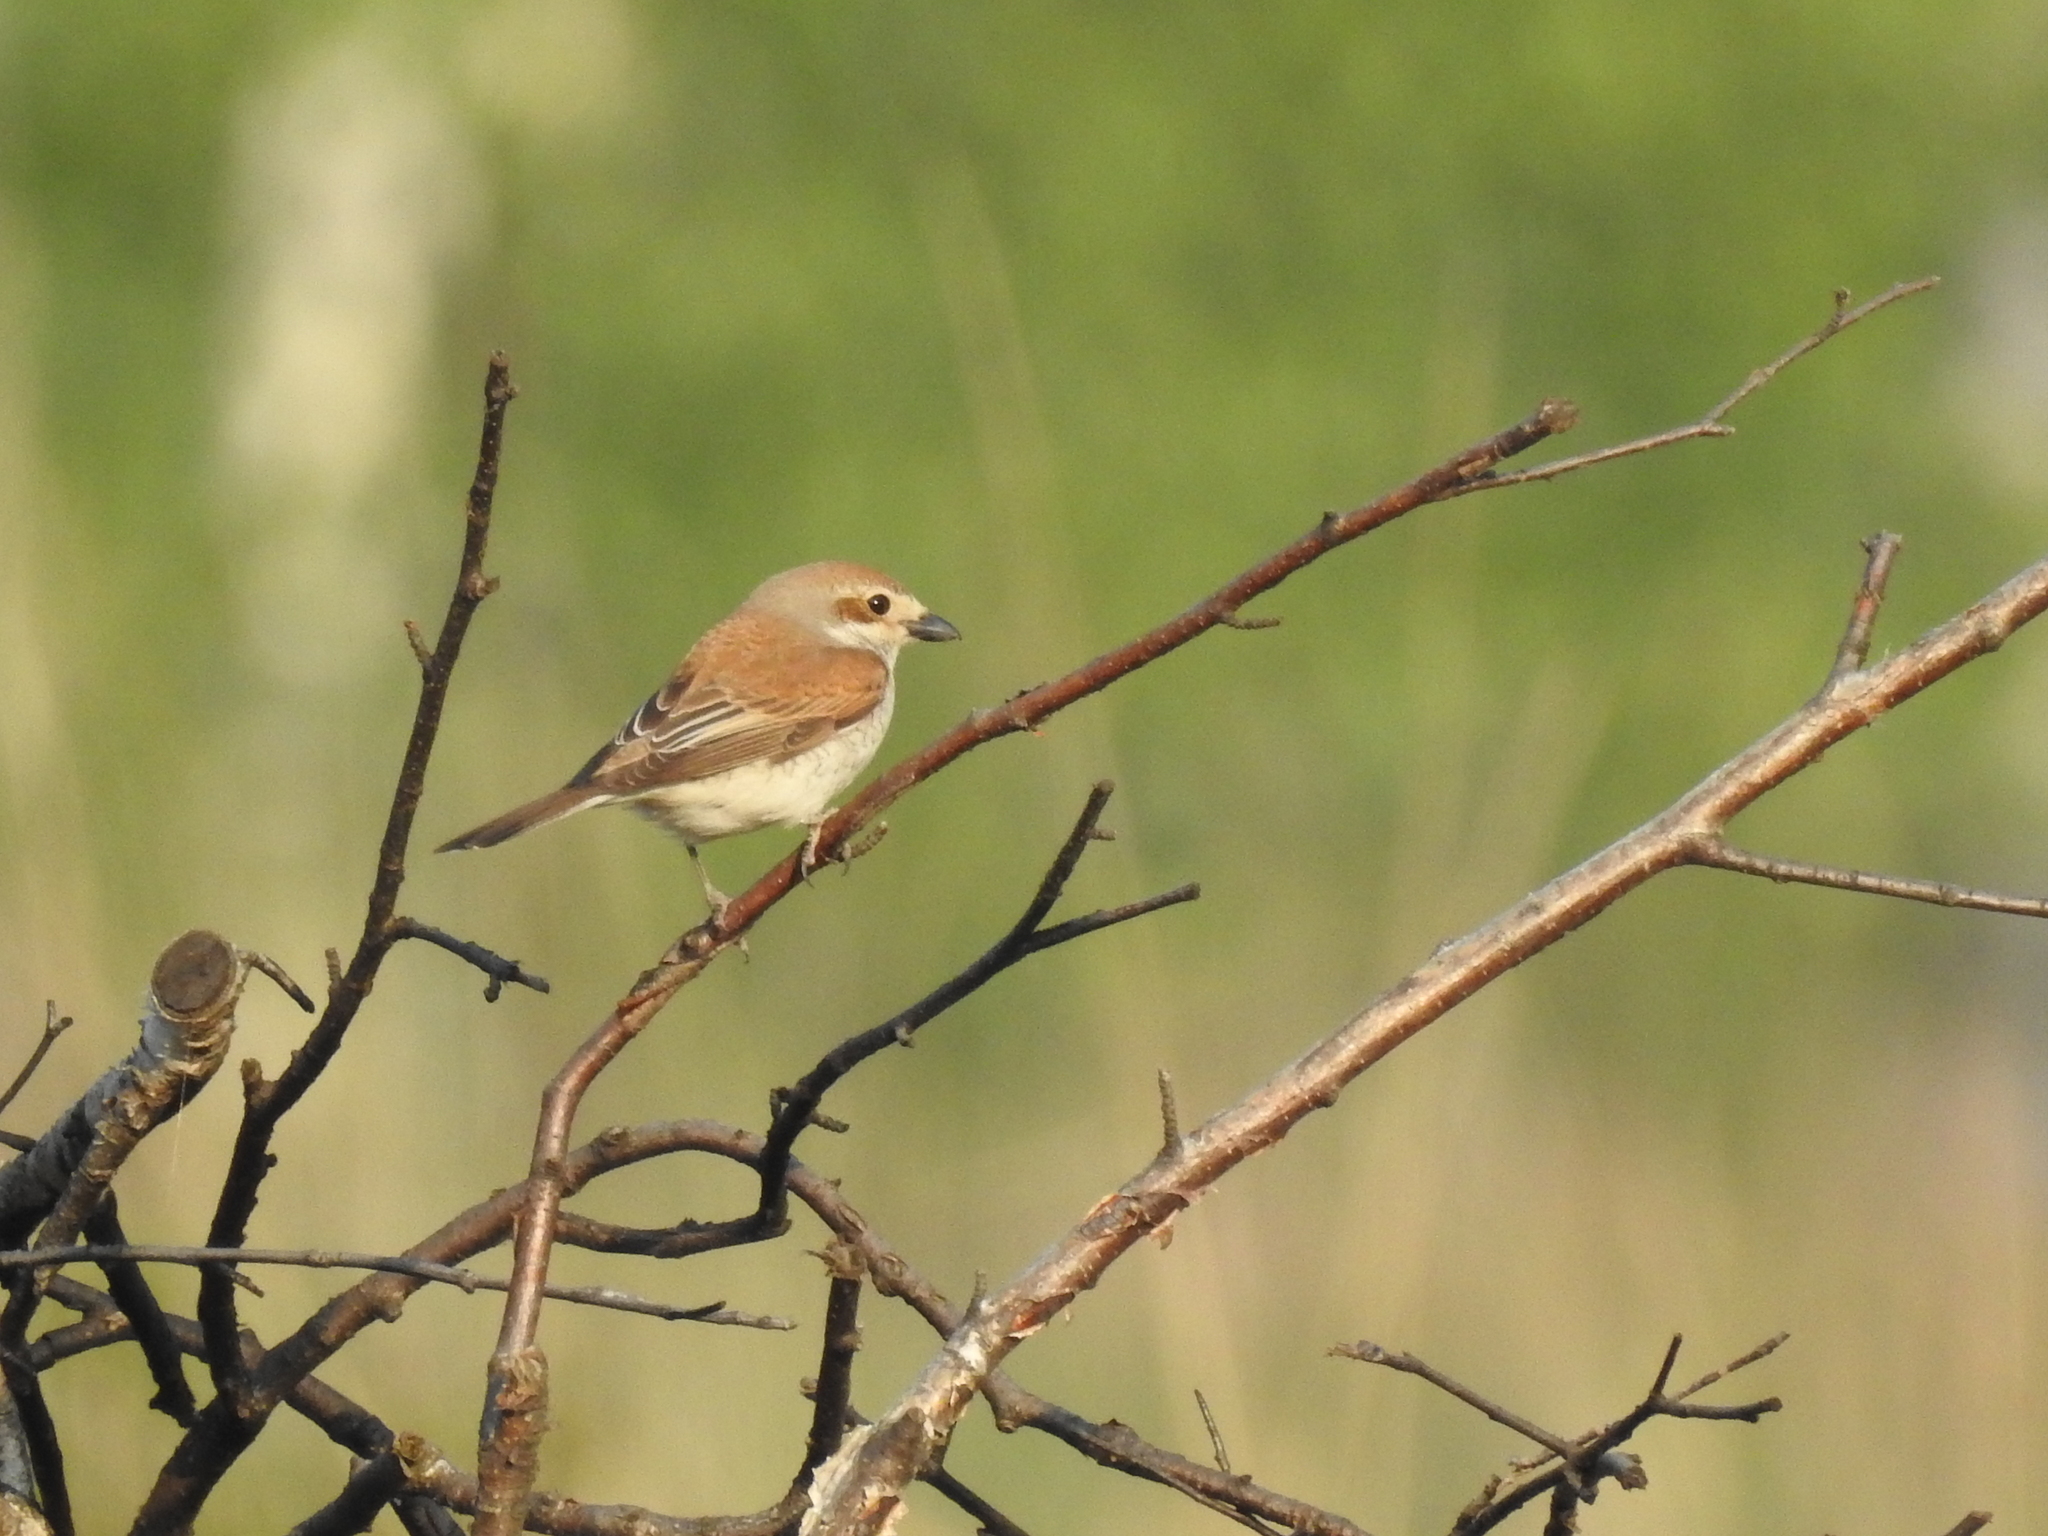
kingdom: Animalia
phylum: Chordata
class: Aves
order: Passeriformes
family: Laniidae
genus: Lanius
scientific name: Lanius collurio
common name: Red-backed shrike
